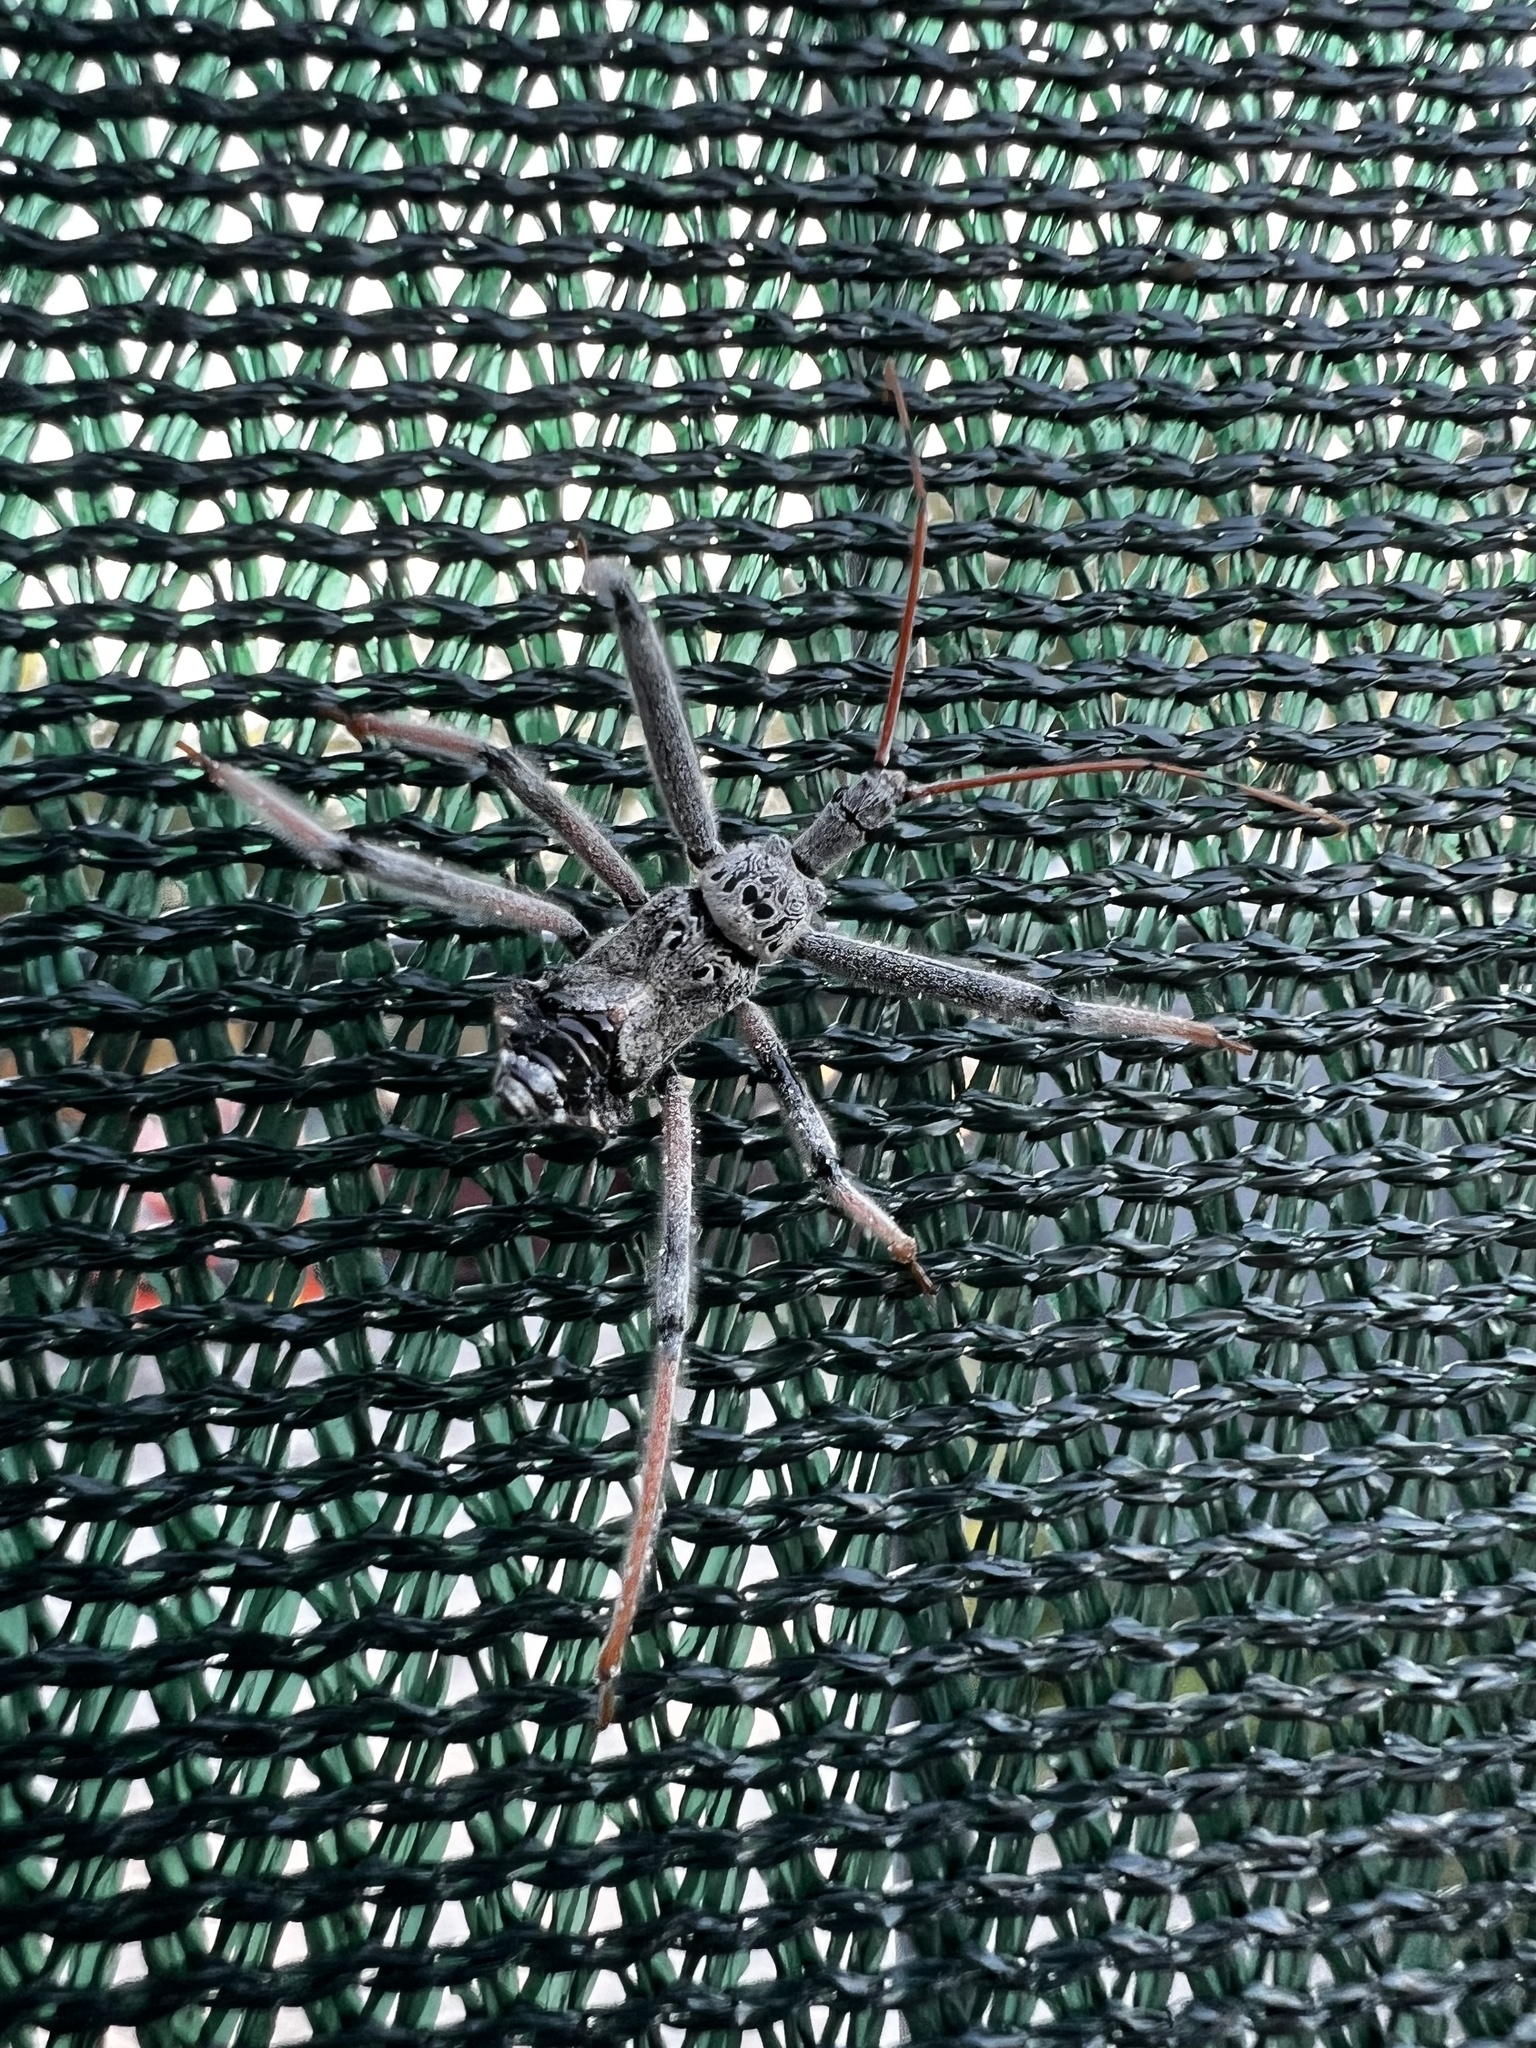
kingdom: Animalia
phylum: Arthropoda
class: Insecta
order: Hemiptera
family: Reduviidae
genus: Arilus
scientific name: Arilus cristatus
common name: North american wheel bug
